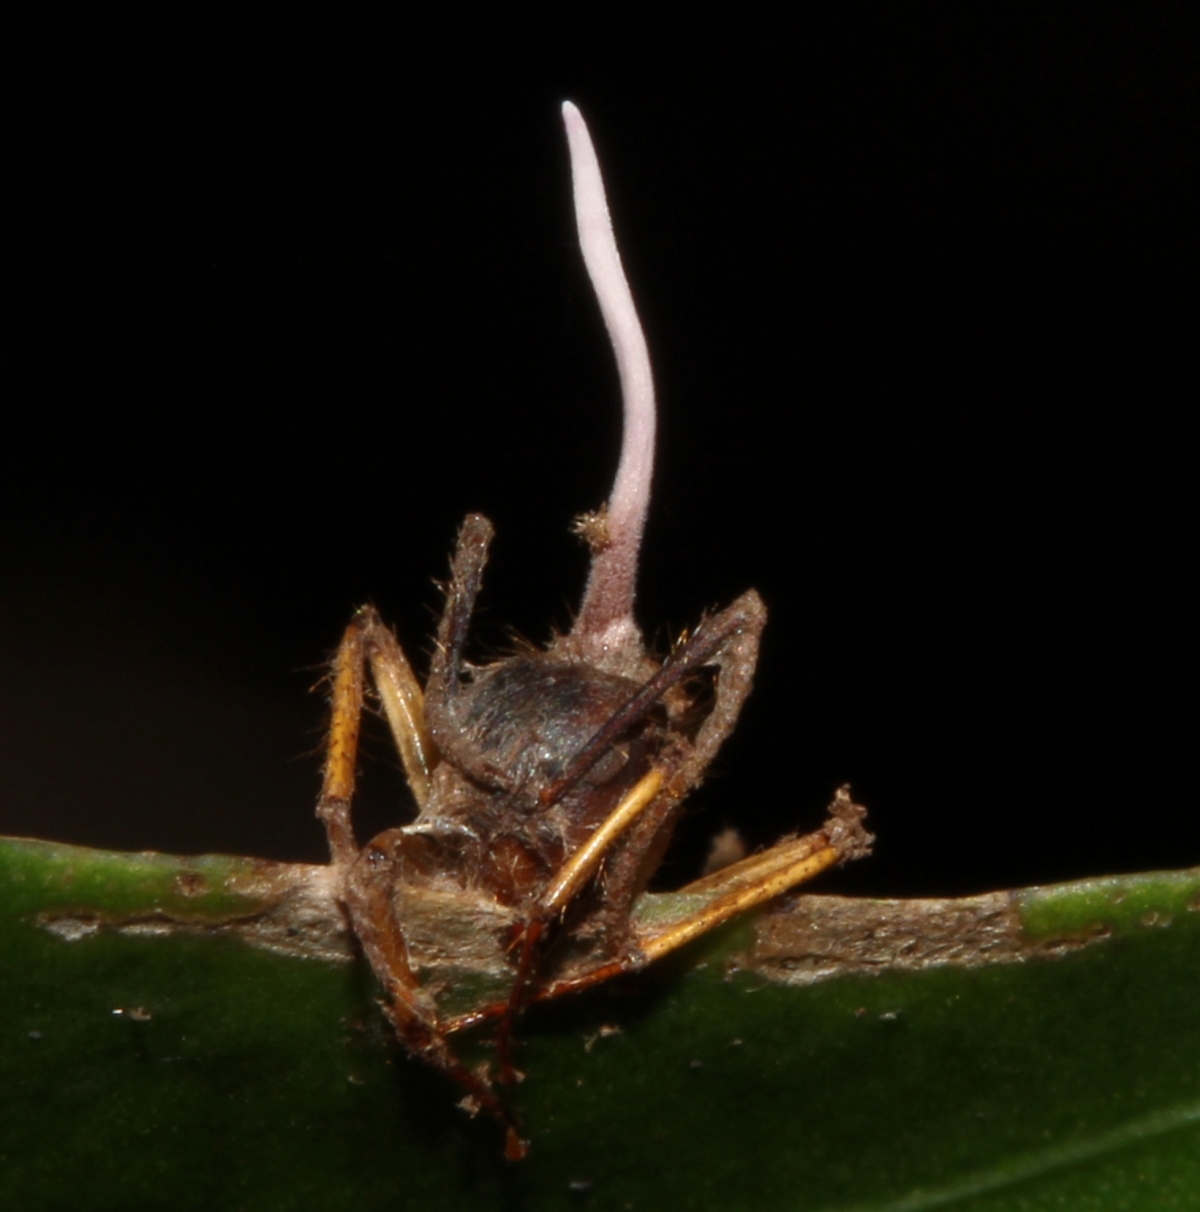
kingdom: Fungi
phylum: Ascomycota
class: Sordariomycetes
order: Hypocreales
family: Ophiocordycipitaceae
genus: Ophiocordyceps
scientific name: Ophiocordyceps camponoti-atricipis
